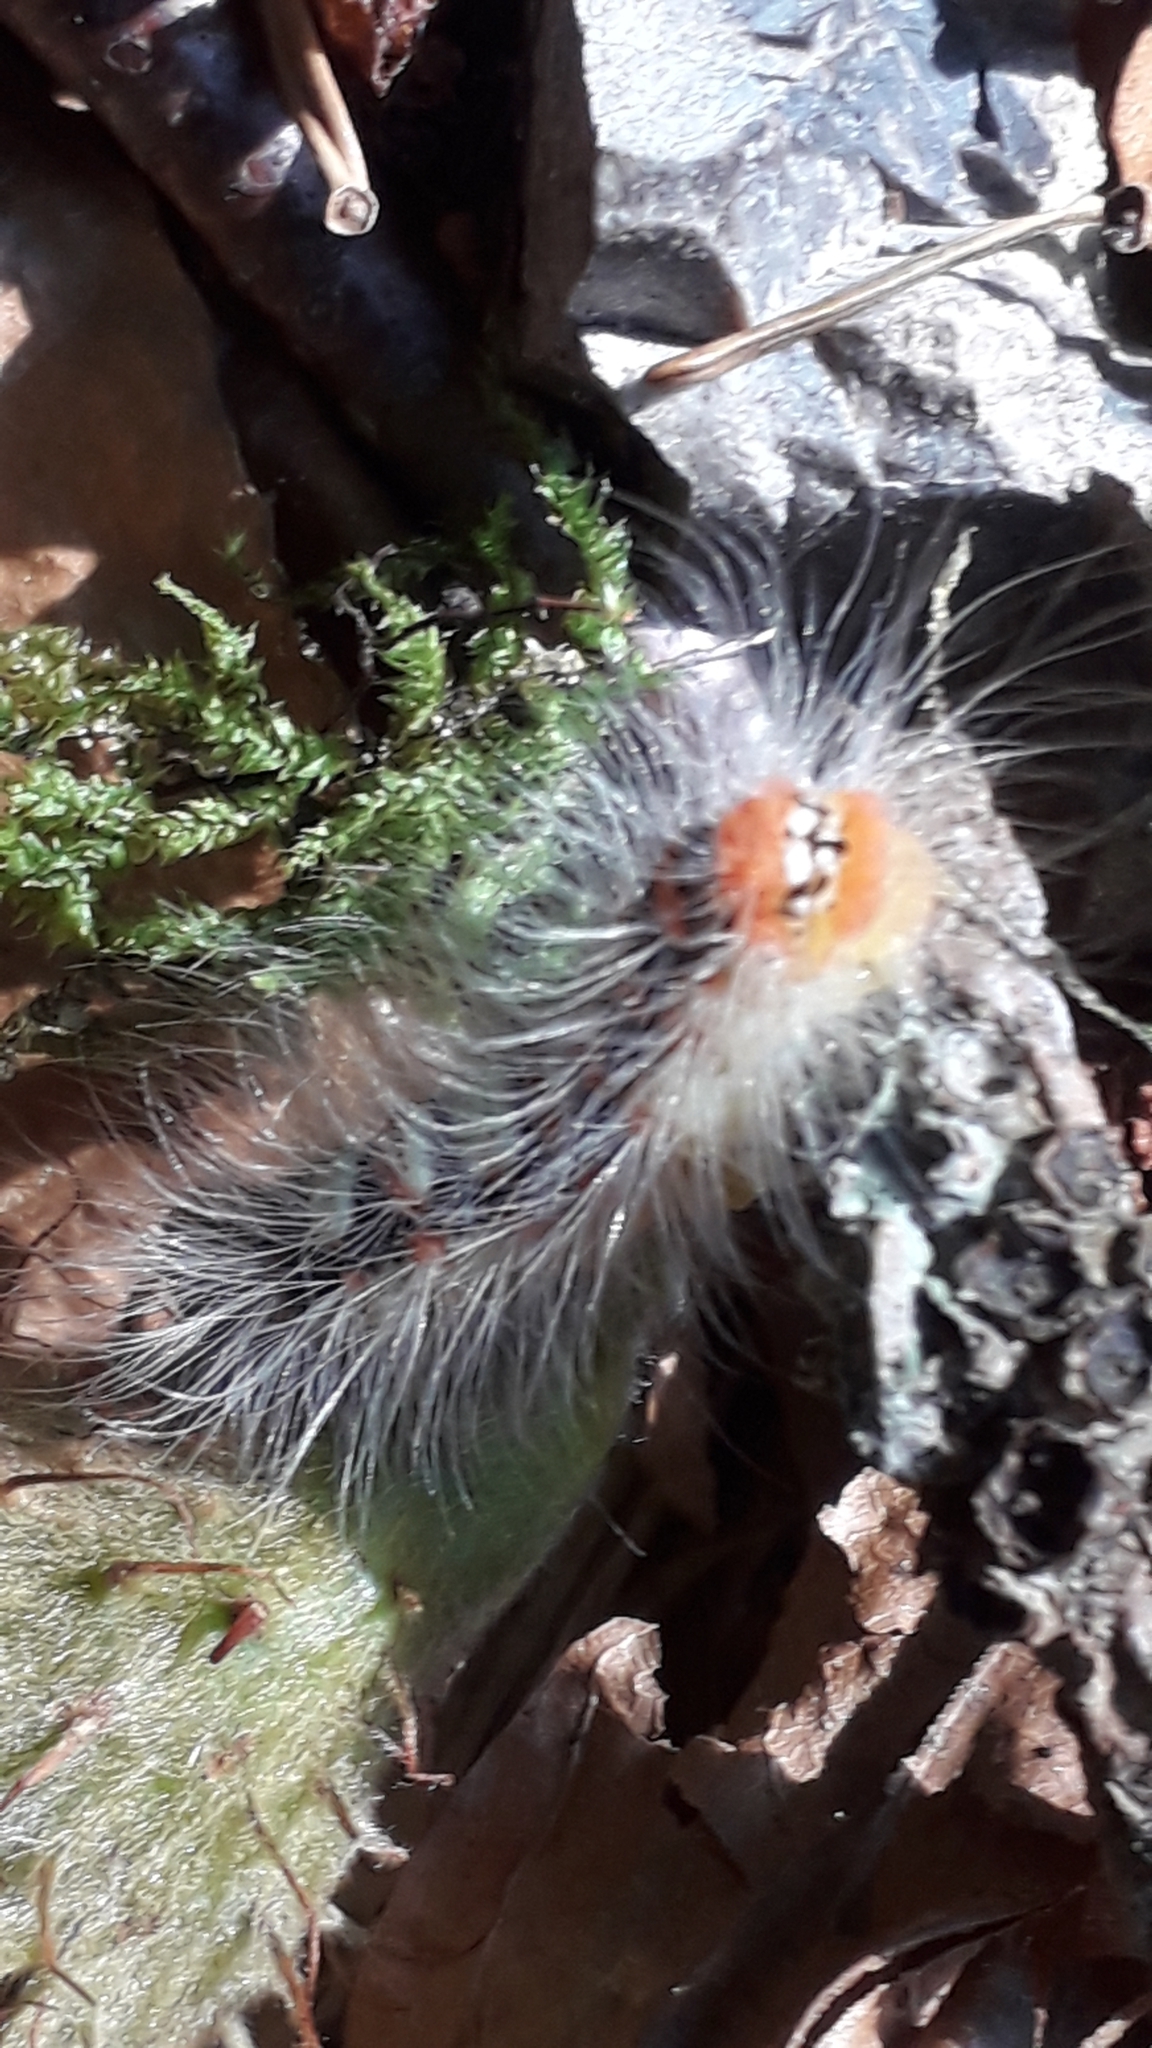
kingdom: Animalia
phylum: Arthropoda
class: Insecta
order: Lepidoptera
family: Noctuidae
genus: Moma
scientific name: Moma alpium
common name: Scarce merveille du jour
